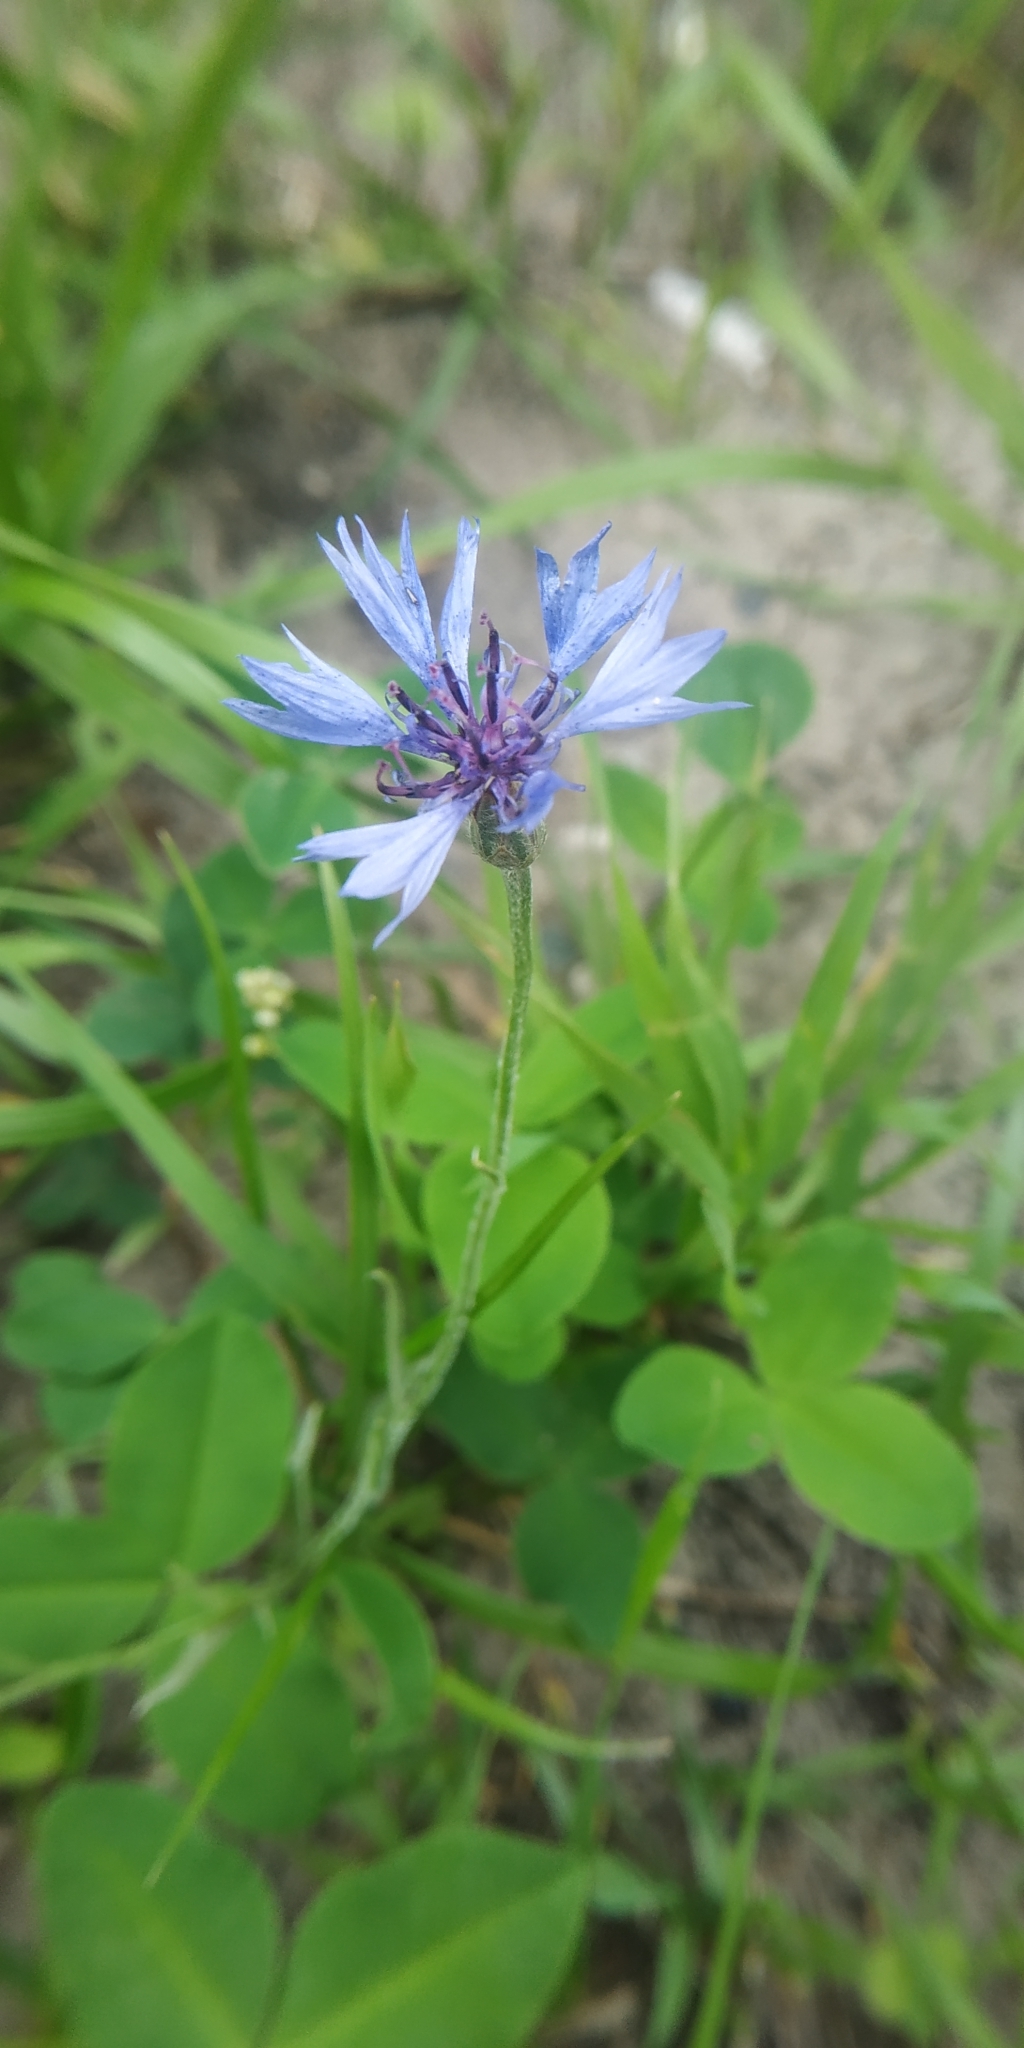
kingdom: Plantae
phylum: Tracheophyta
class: Magnoliopsida
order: Asterales
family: Asteraceae
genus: Centaurea
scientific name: Centaurea cyanus
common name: Cornflower
